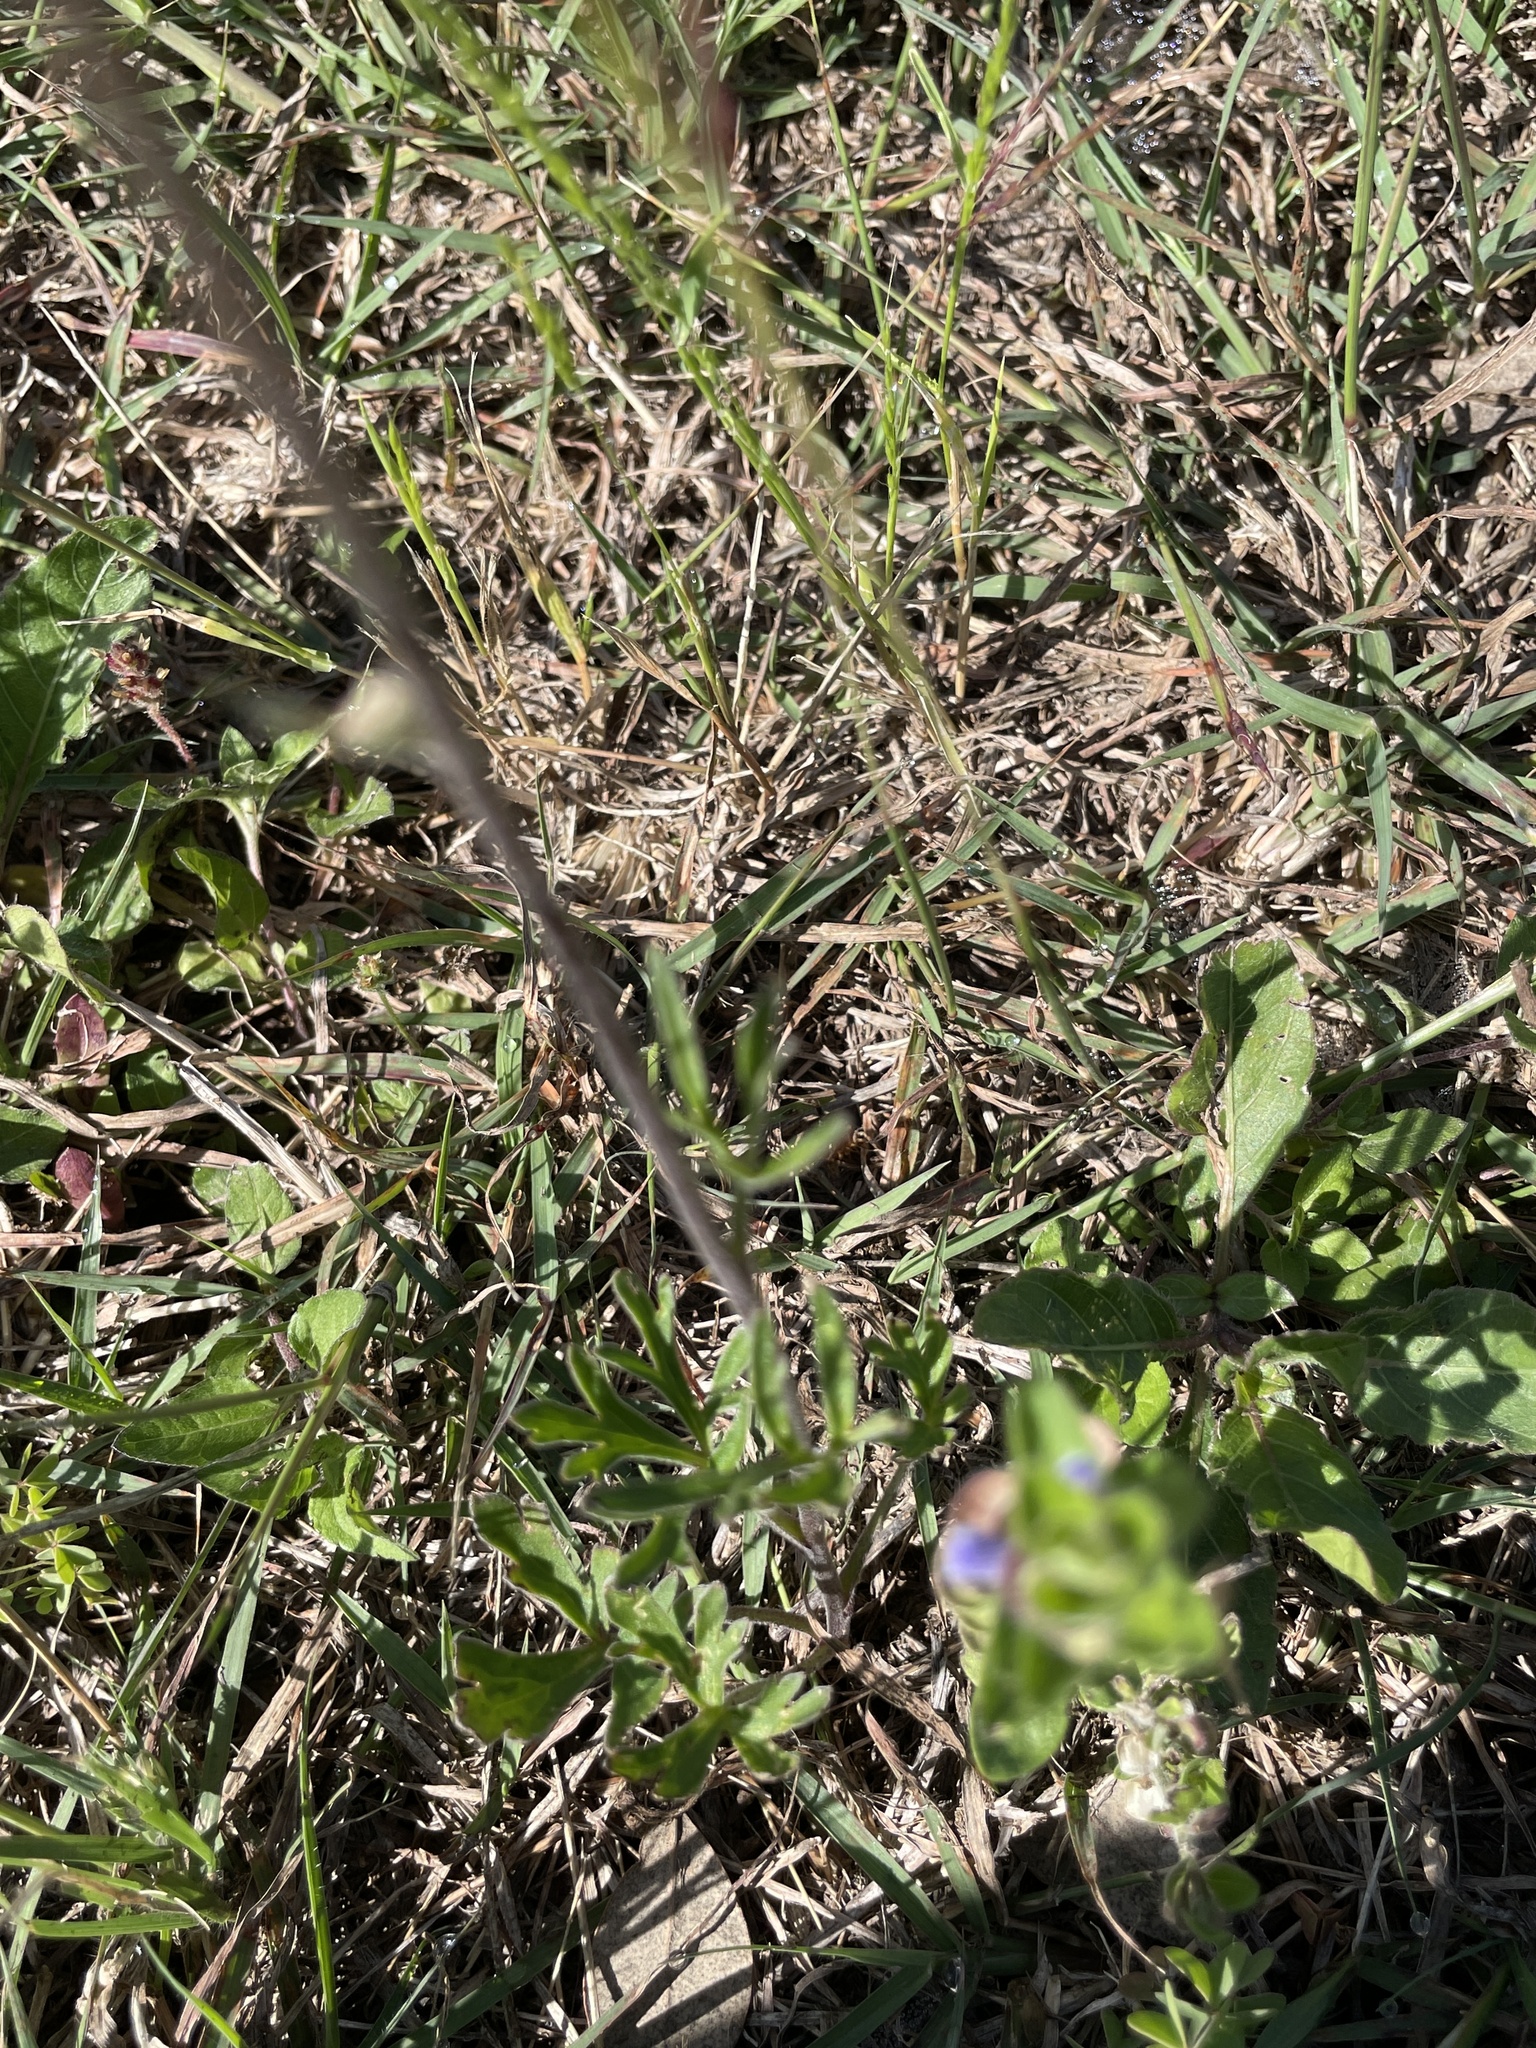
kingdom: Plantae
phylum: Tracheophyta
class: Magnoliopsida
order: Ranunculales
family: Ranunculaceae
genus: Delphinium
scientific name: Delphinium carolinianum
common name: Carolina larkspur
